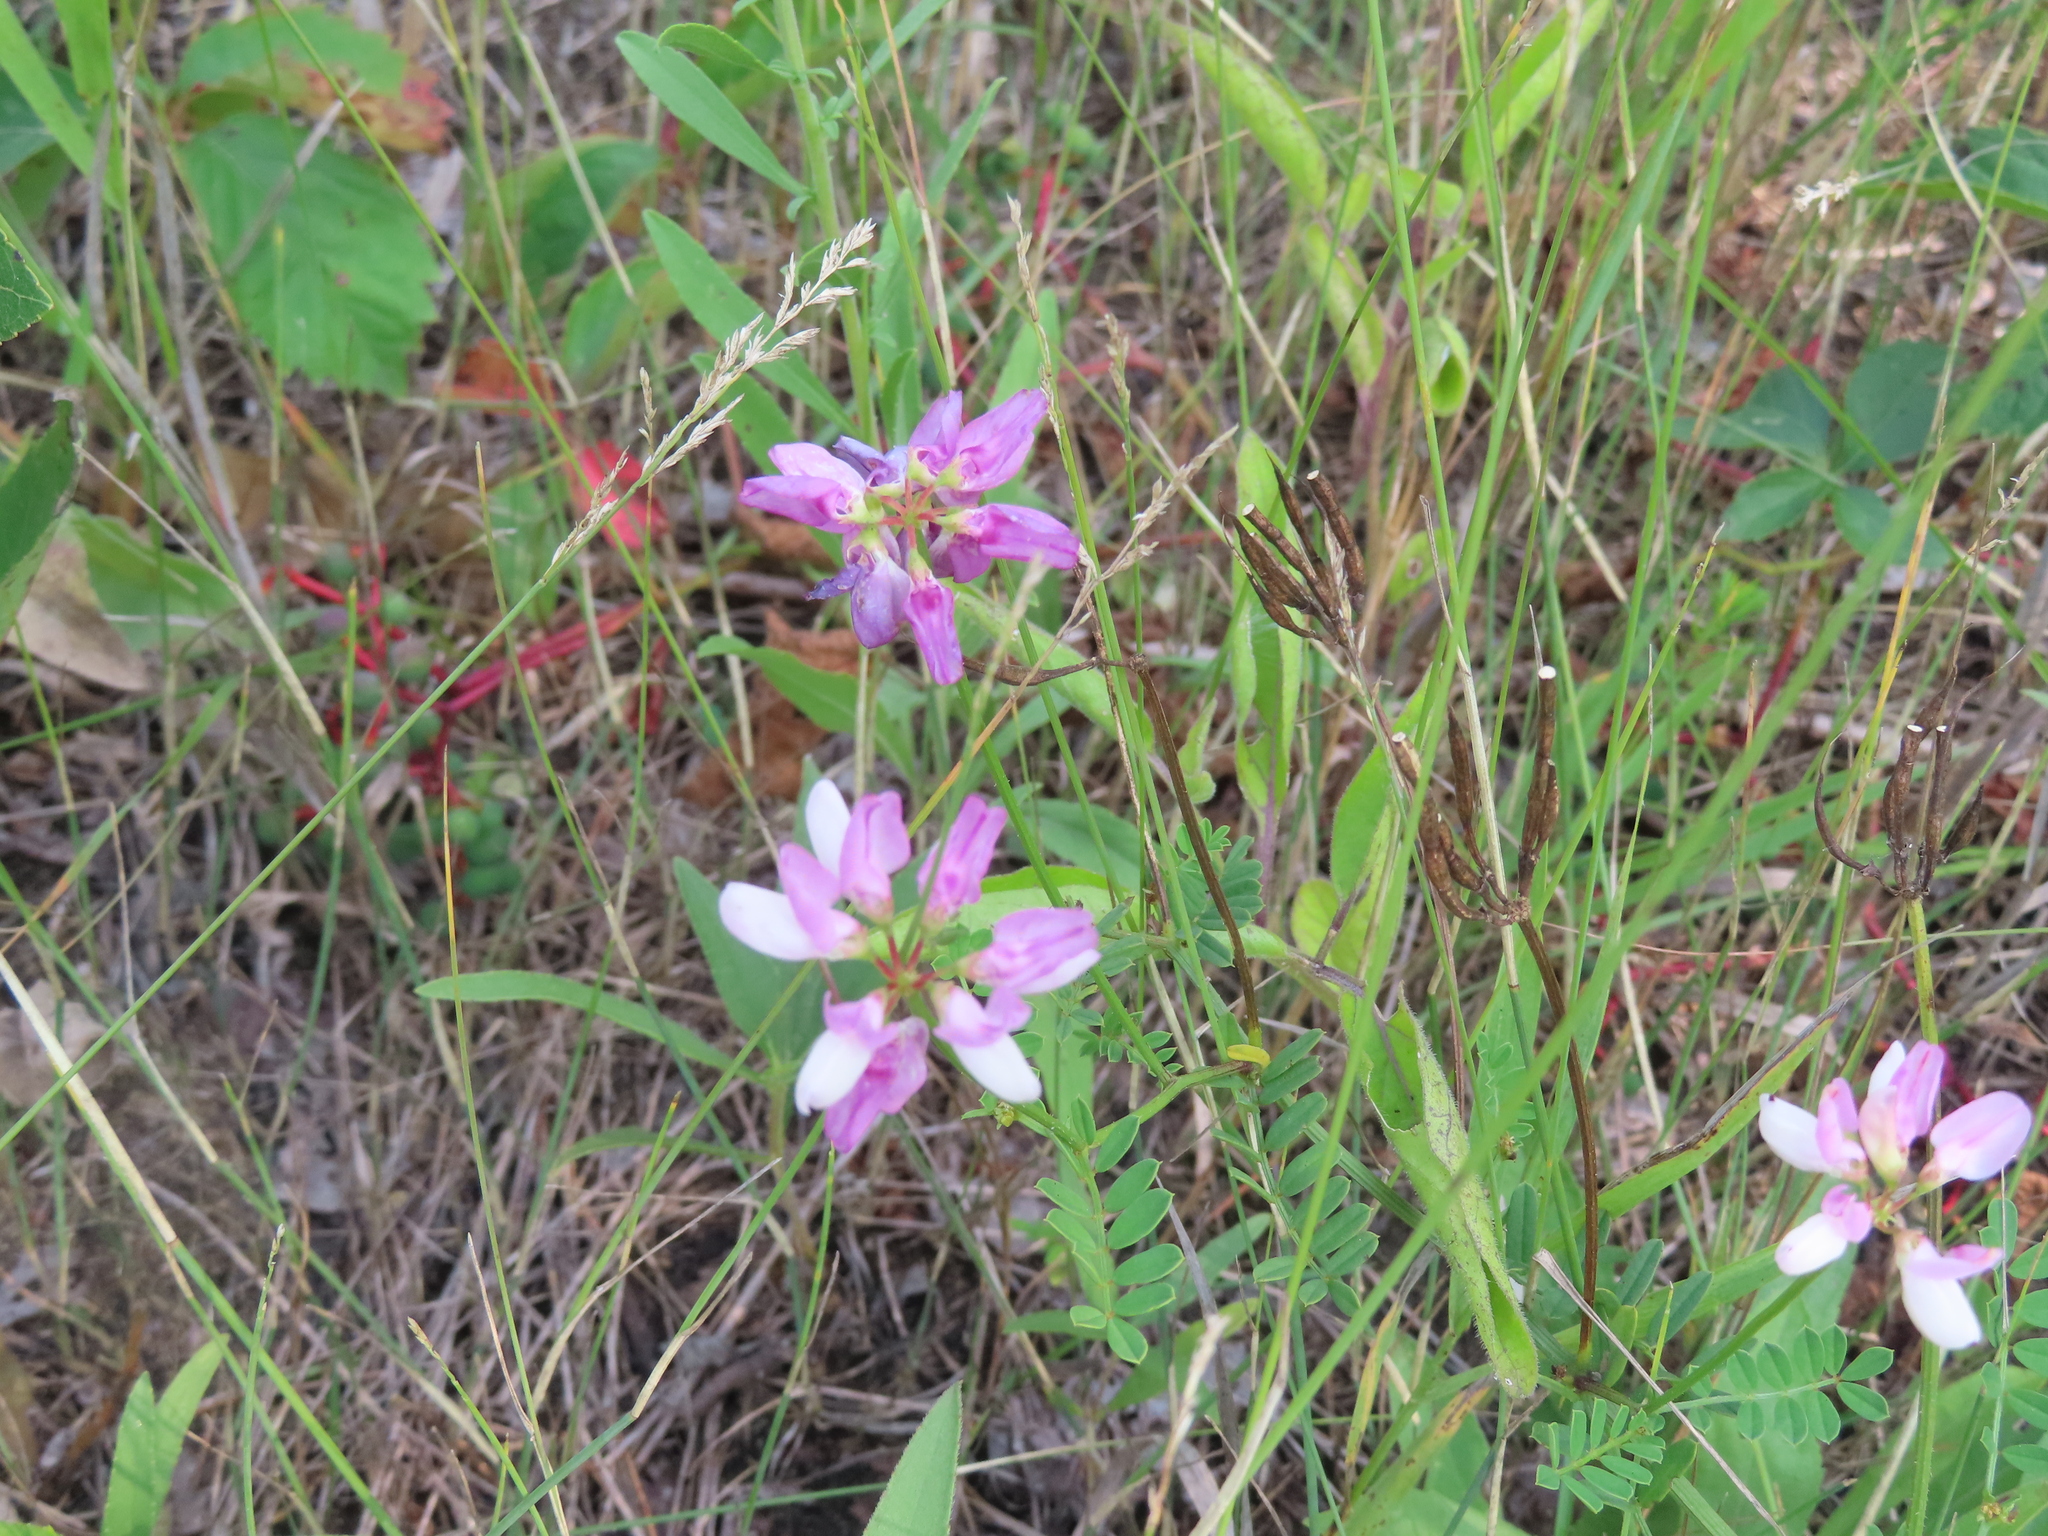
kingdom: Plantae
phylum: Tracheophyta
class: Magnoliopsida
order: Fabales
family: Fabaceae
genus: Coronilla
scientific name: Coronilla varia
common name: Crownvetch
